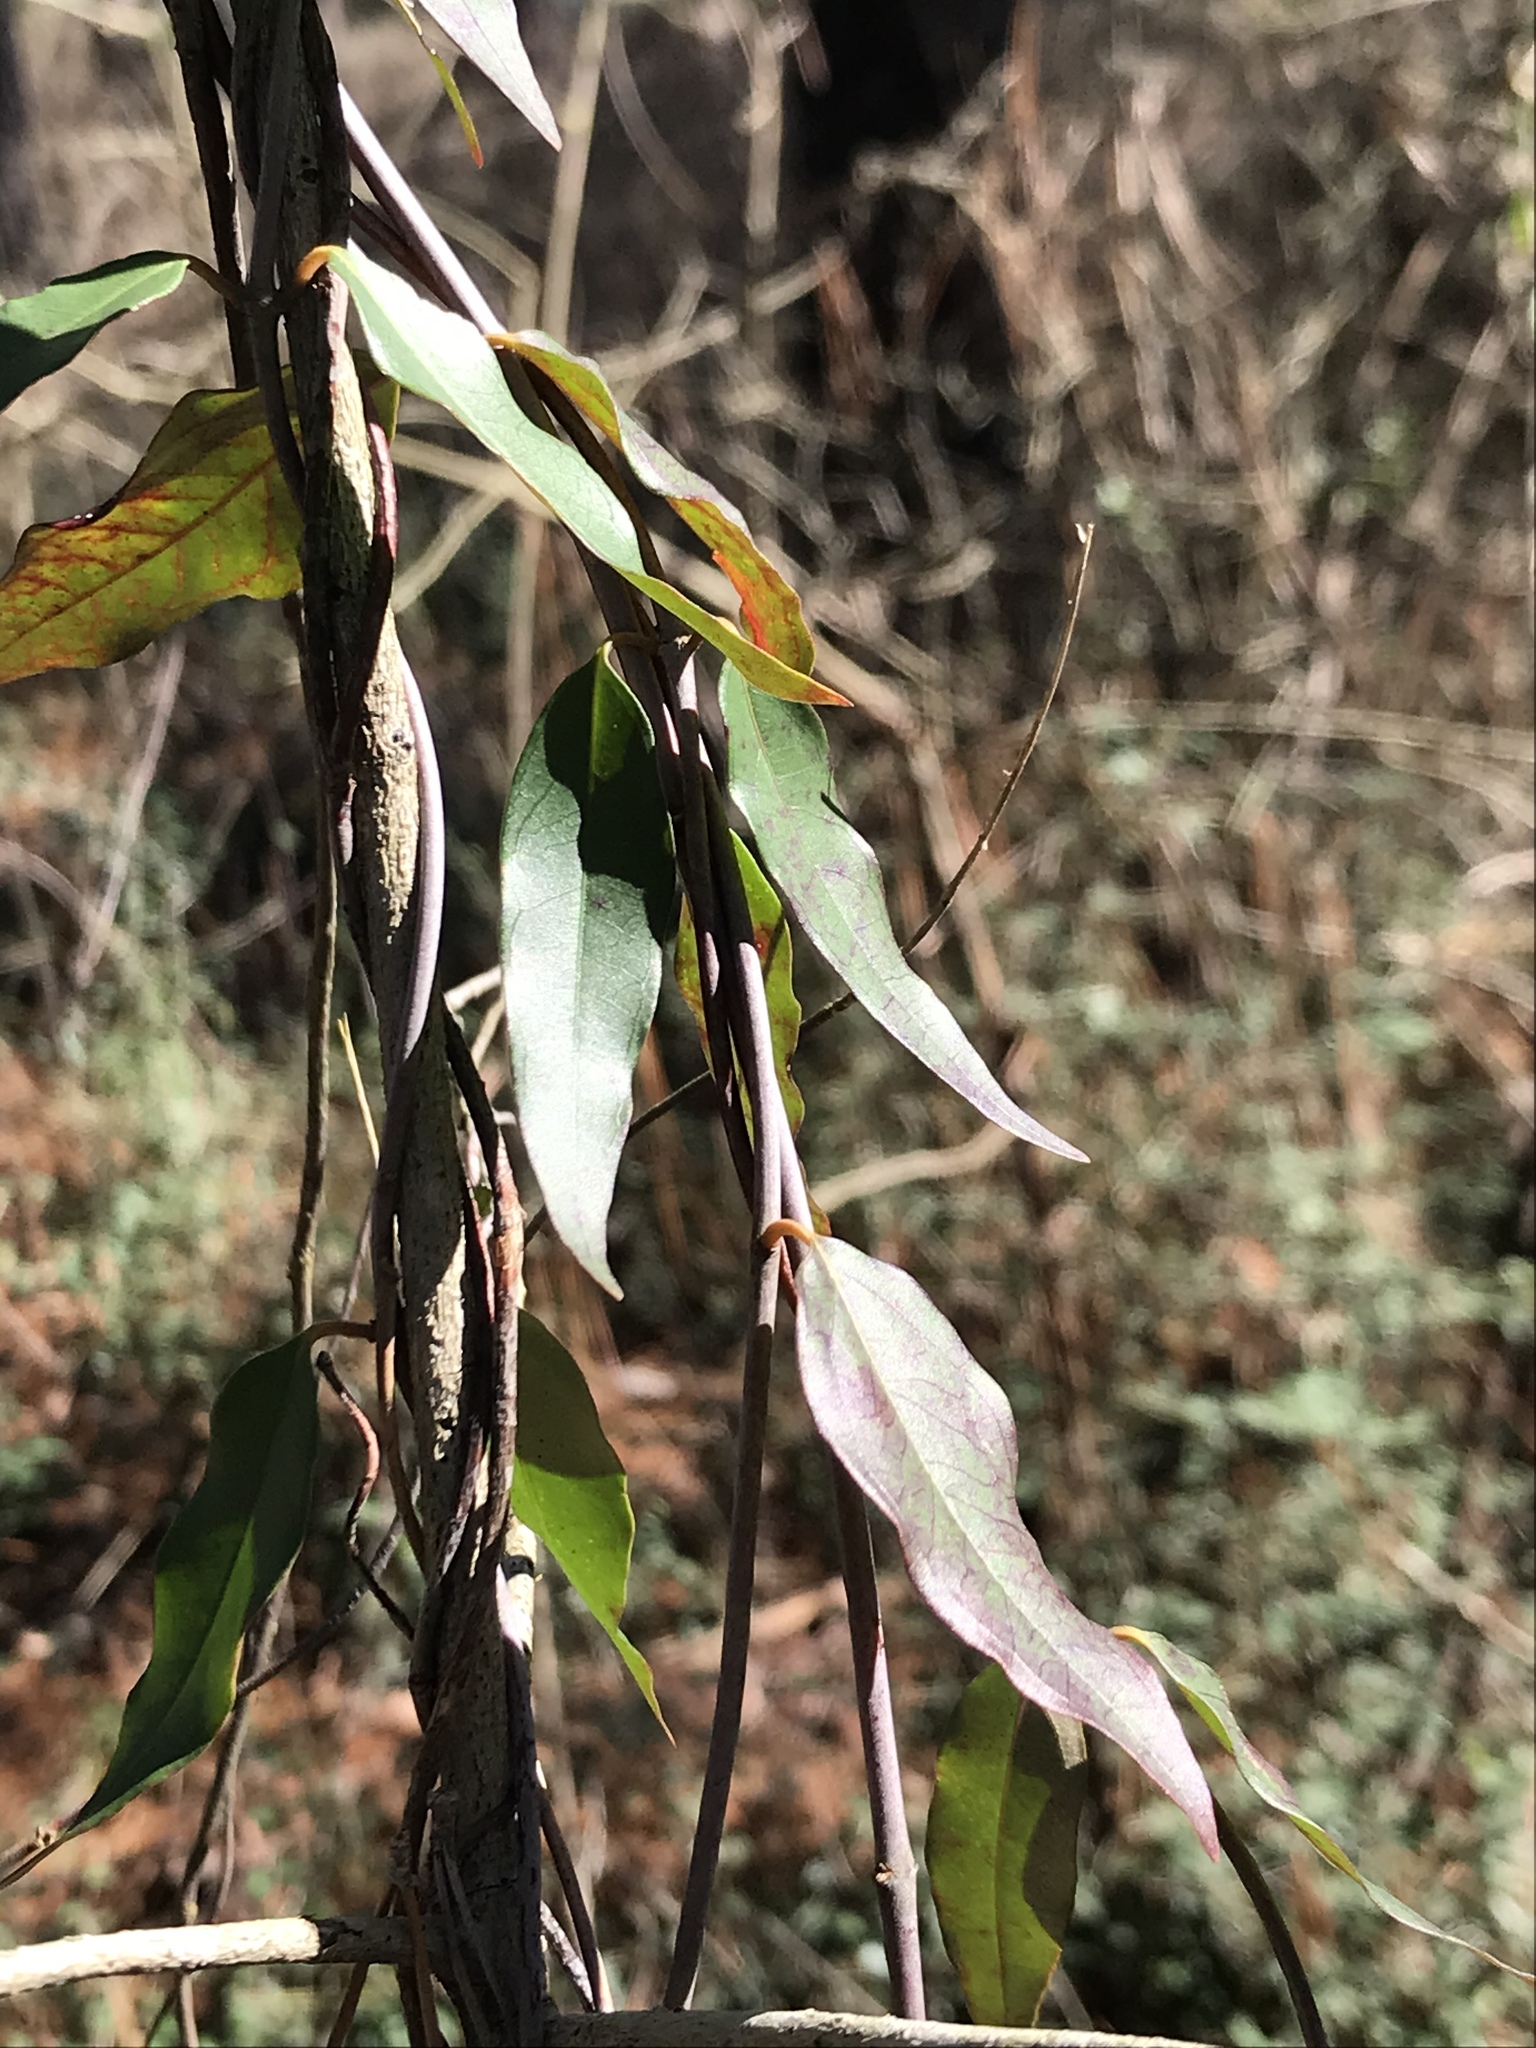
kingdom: Plantae
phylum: Tracheophyta
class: Magnoliopsida
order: Gentianales
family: Gelsemiaceae
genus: Gelsemium
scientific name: Gelsemium sempervirens
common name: Carolina-jasmine
